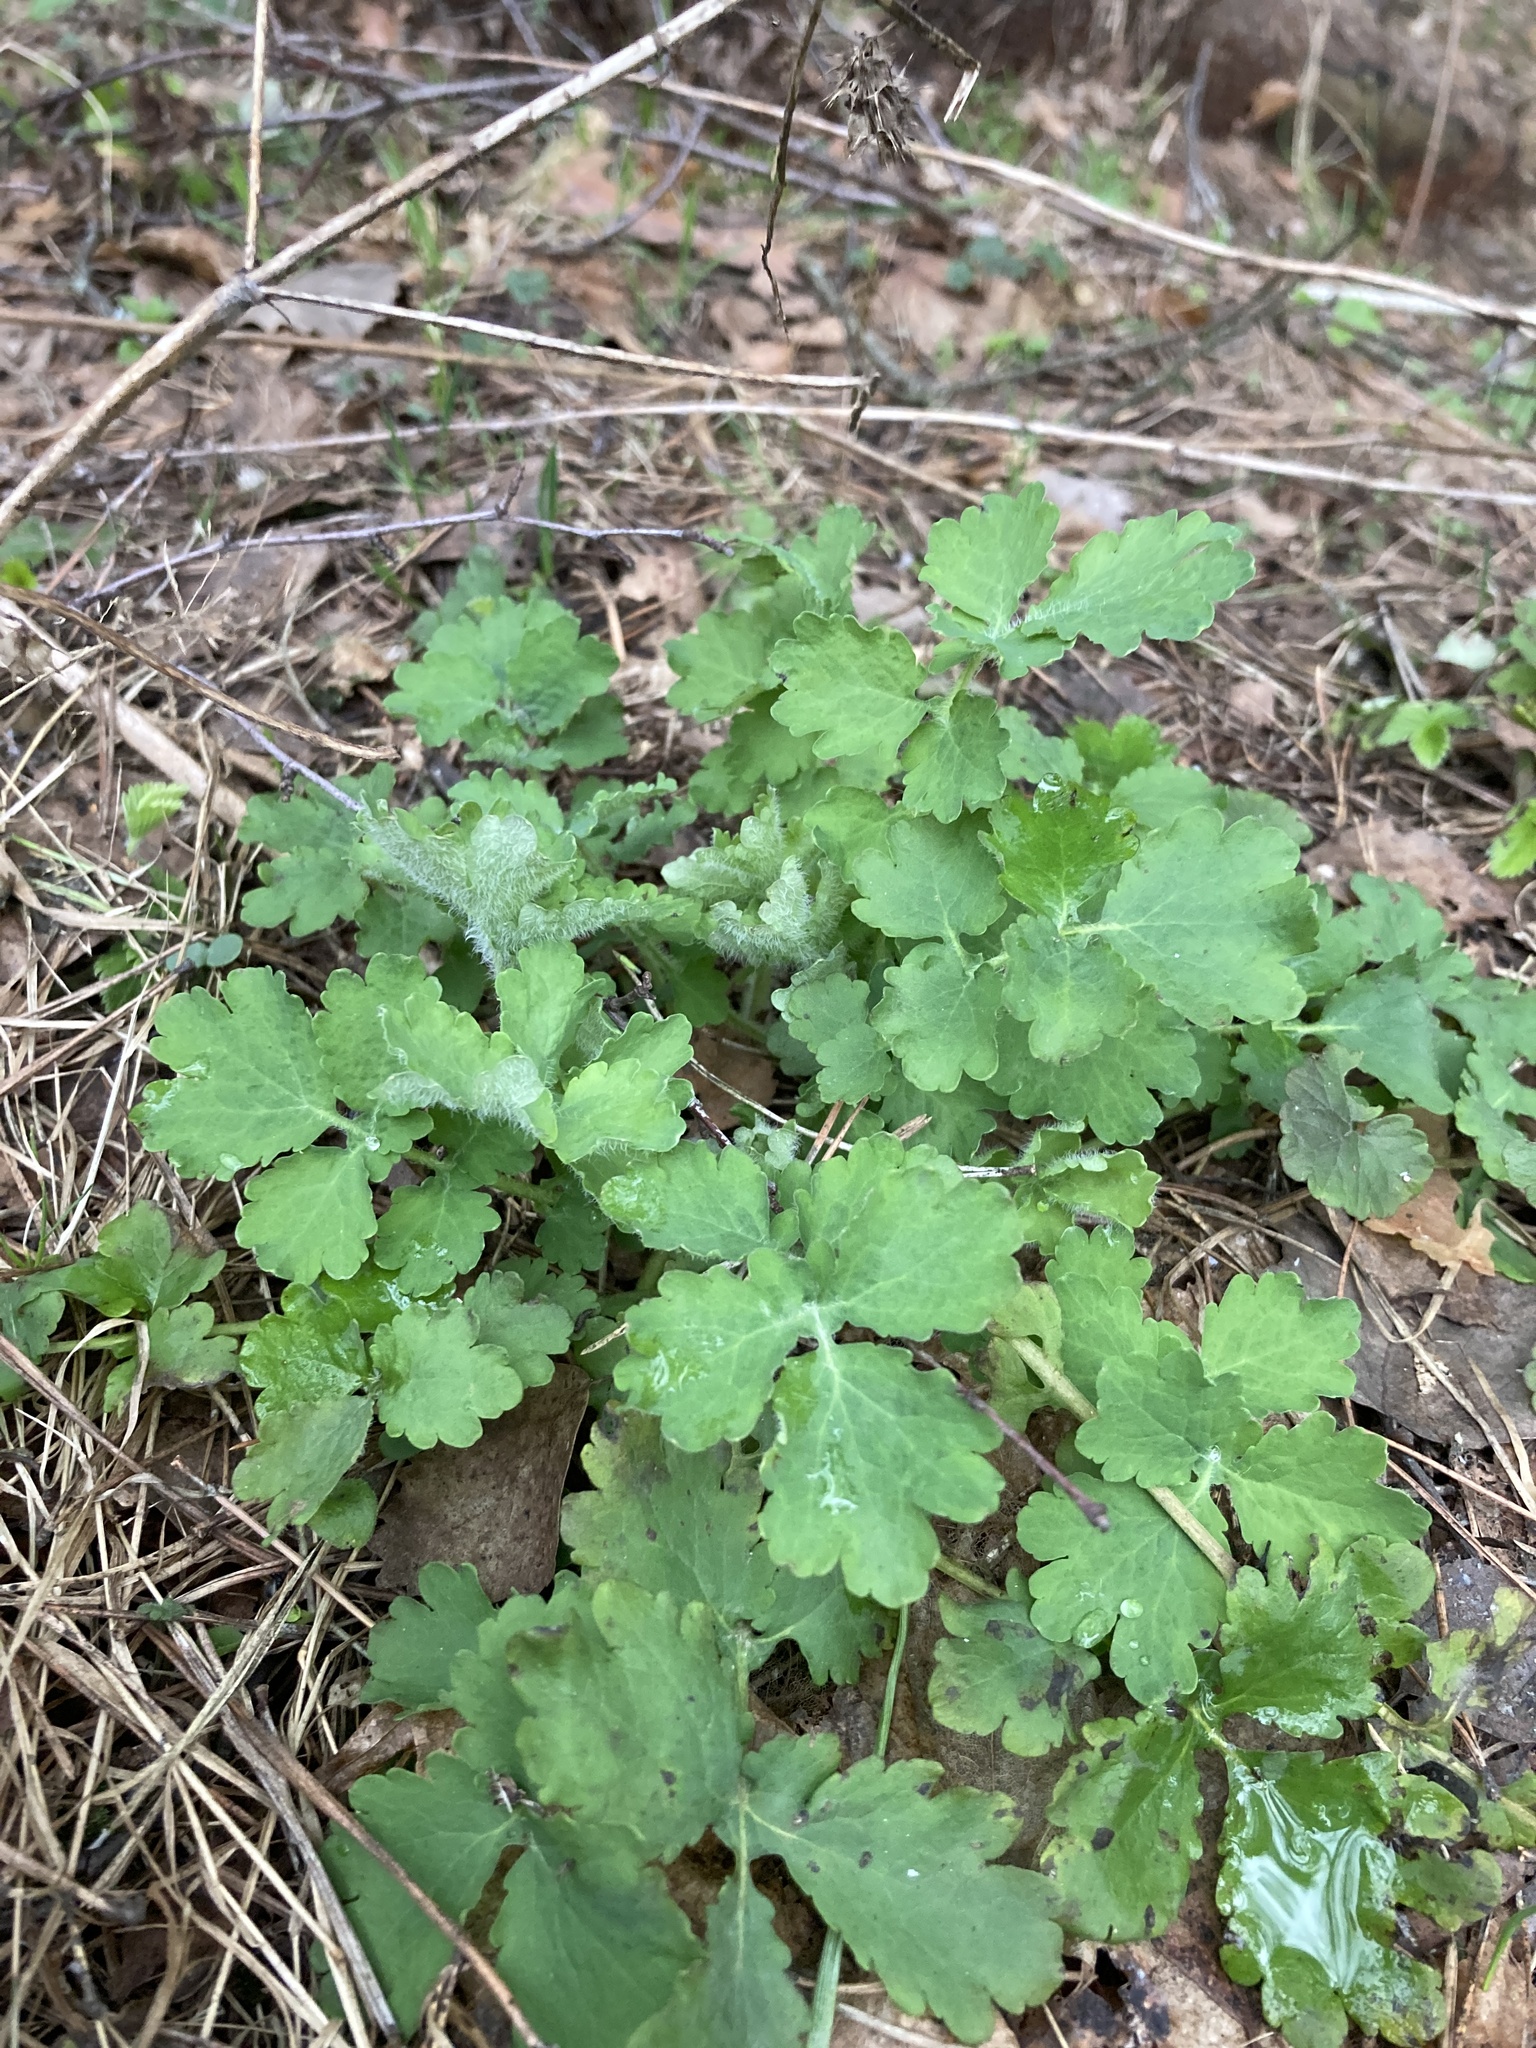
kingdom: Plantae
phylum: Tracheophyta
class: Magnoliopsida
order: Ranunculales
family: Papaveraceae
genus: Chelidonium
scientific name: Chelidonium majus
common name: Greater celandine
